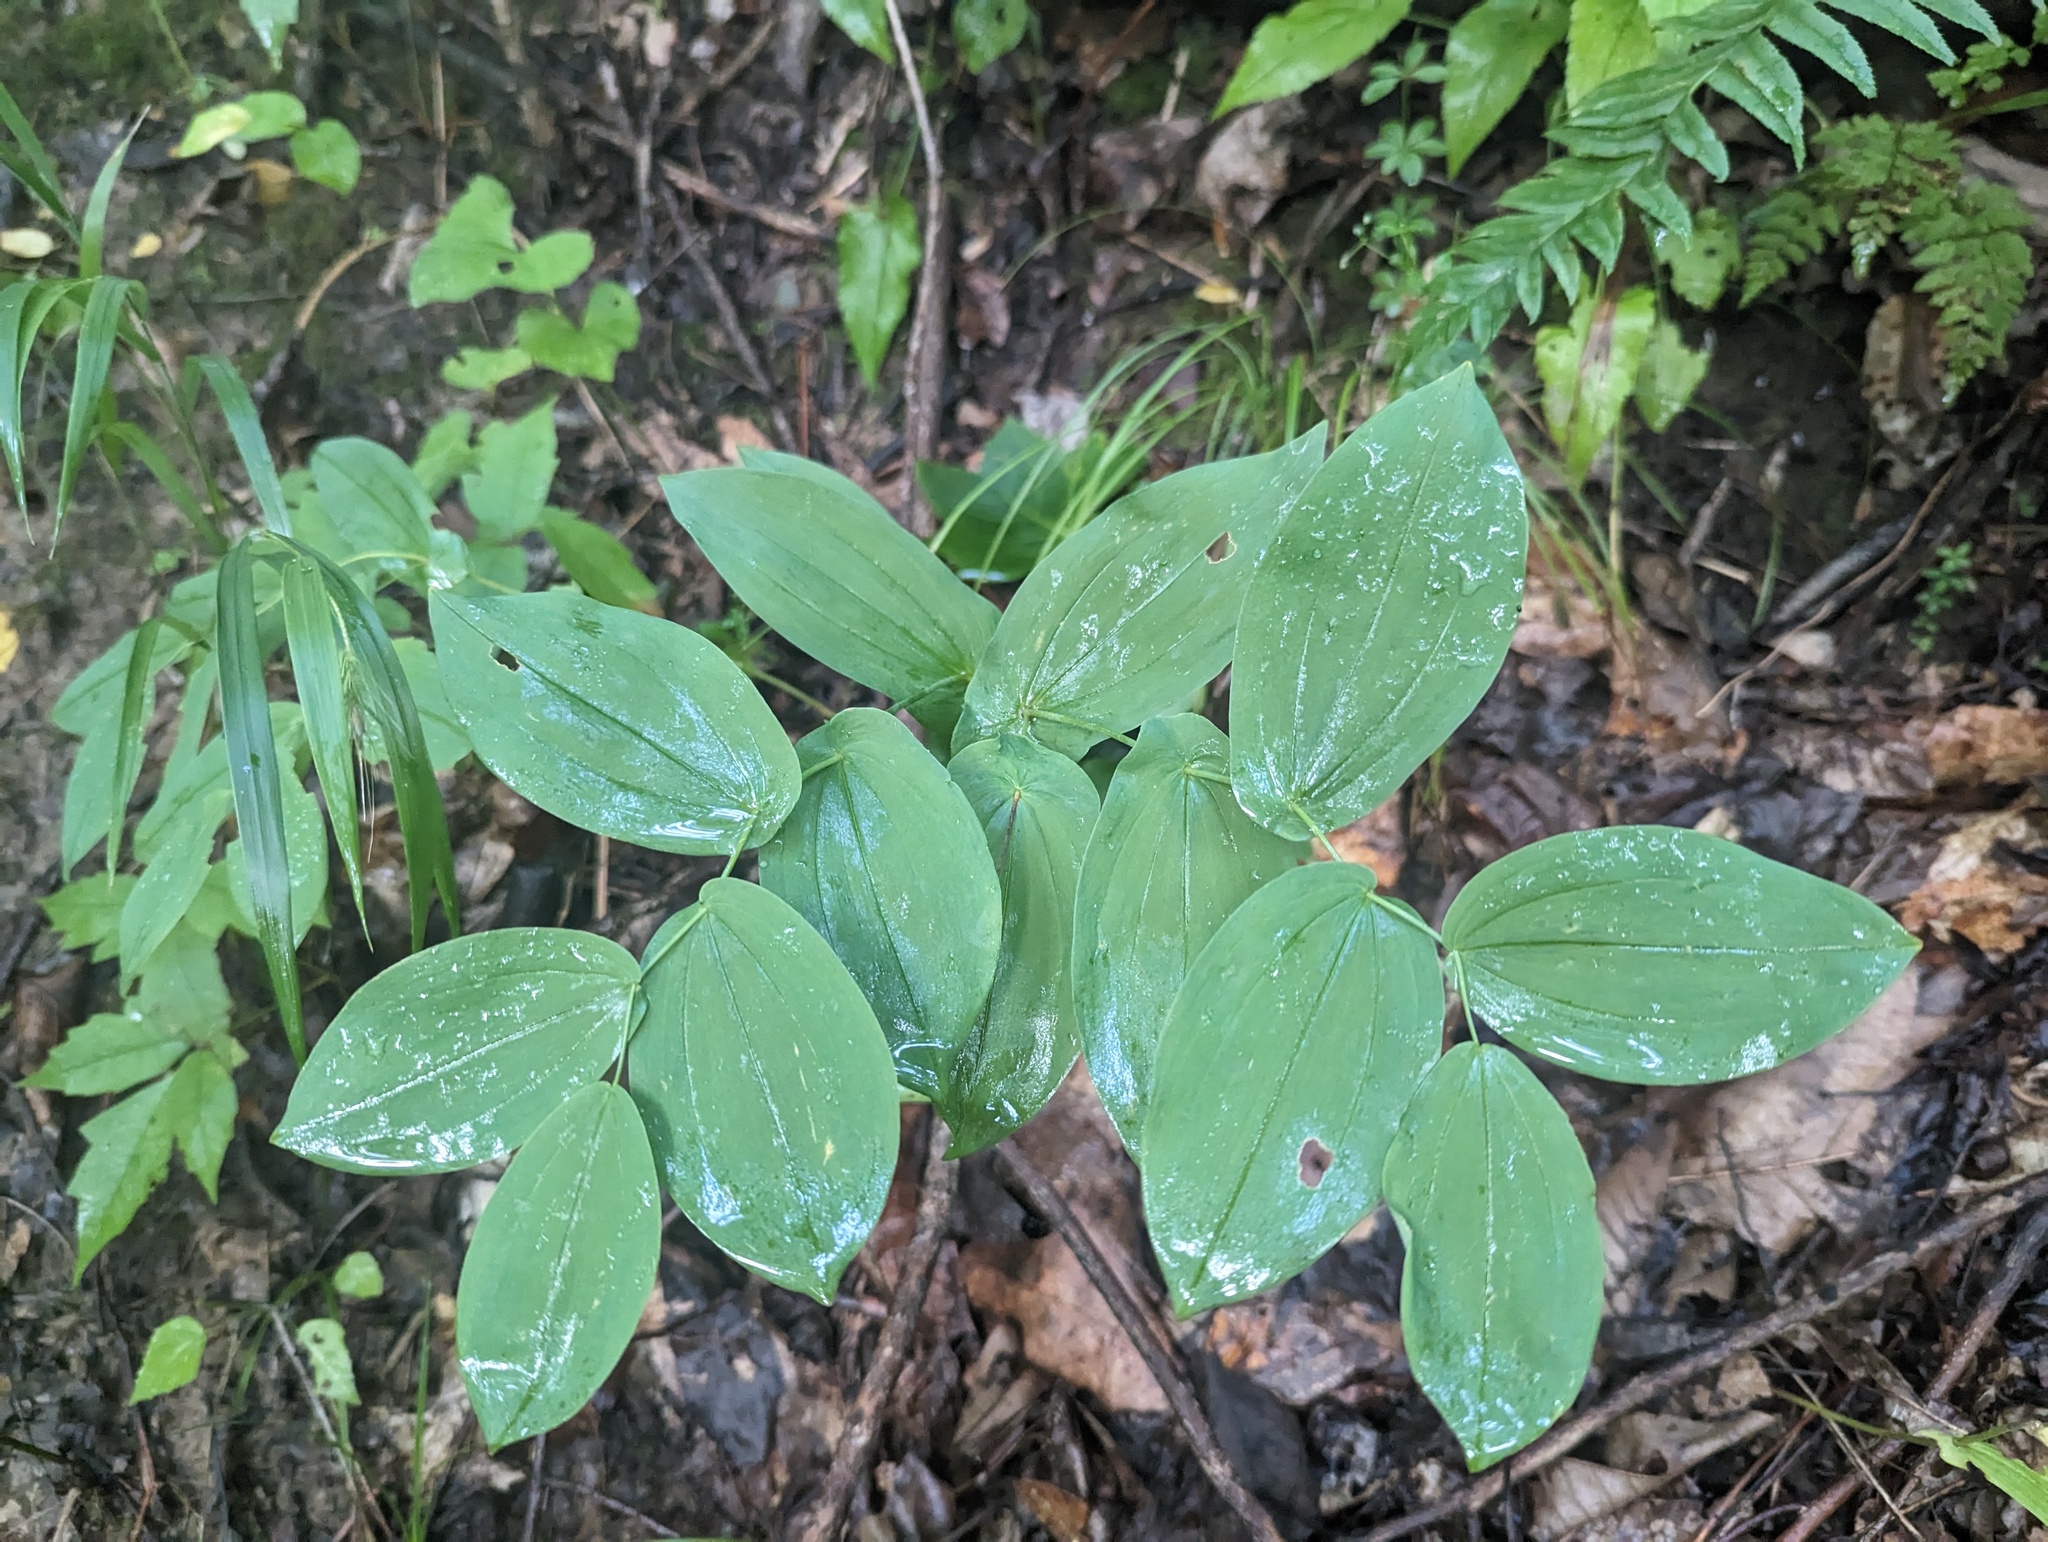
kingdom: Plantae
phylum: Tracheophyta
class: Liliopsida
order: Liliales
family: Colchicaceae
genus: Uvularia
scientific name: Uvularia grandiflora
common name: Bellwort
